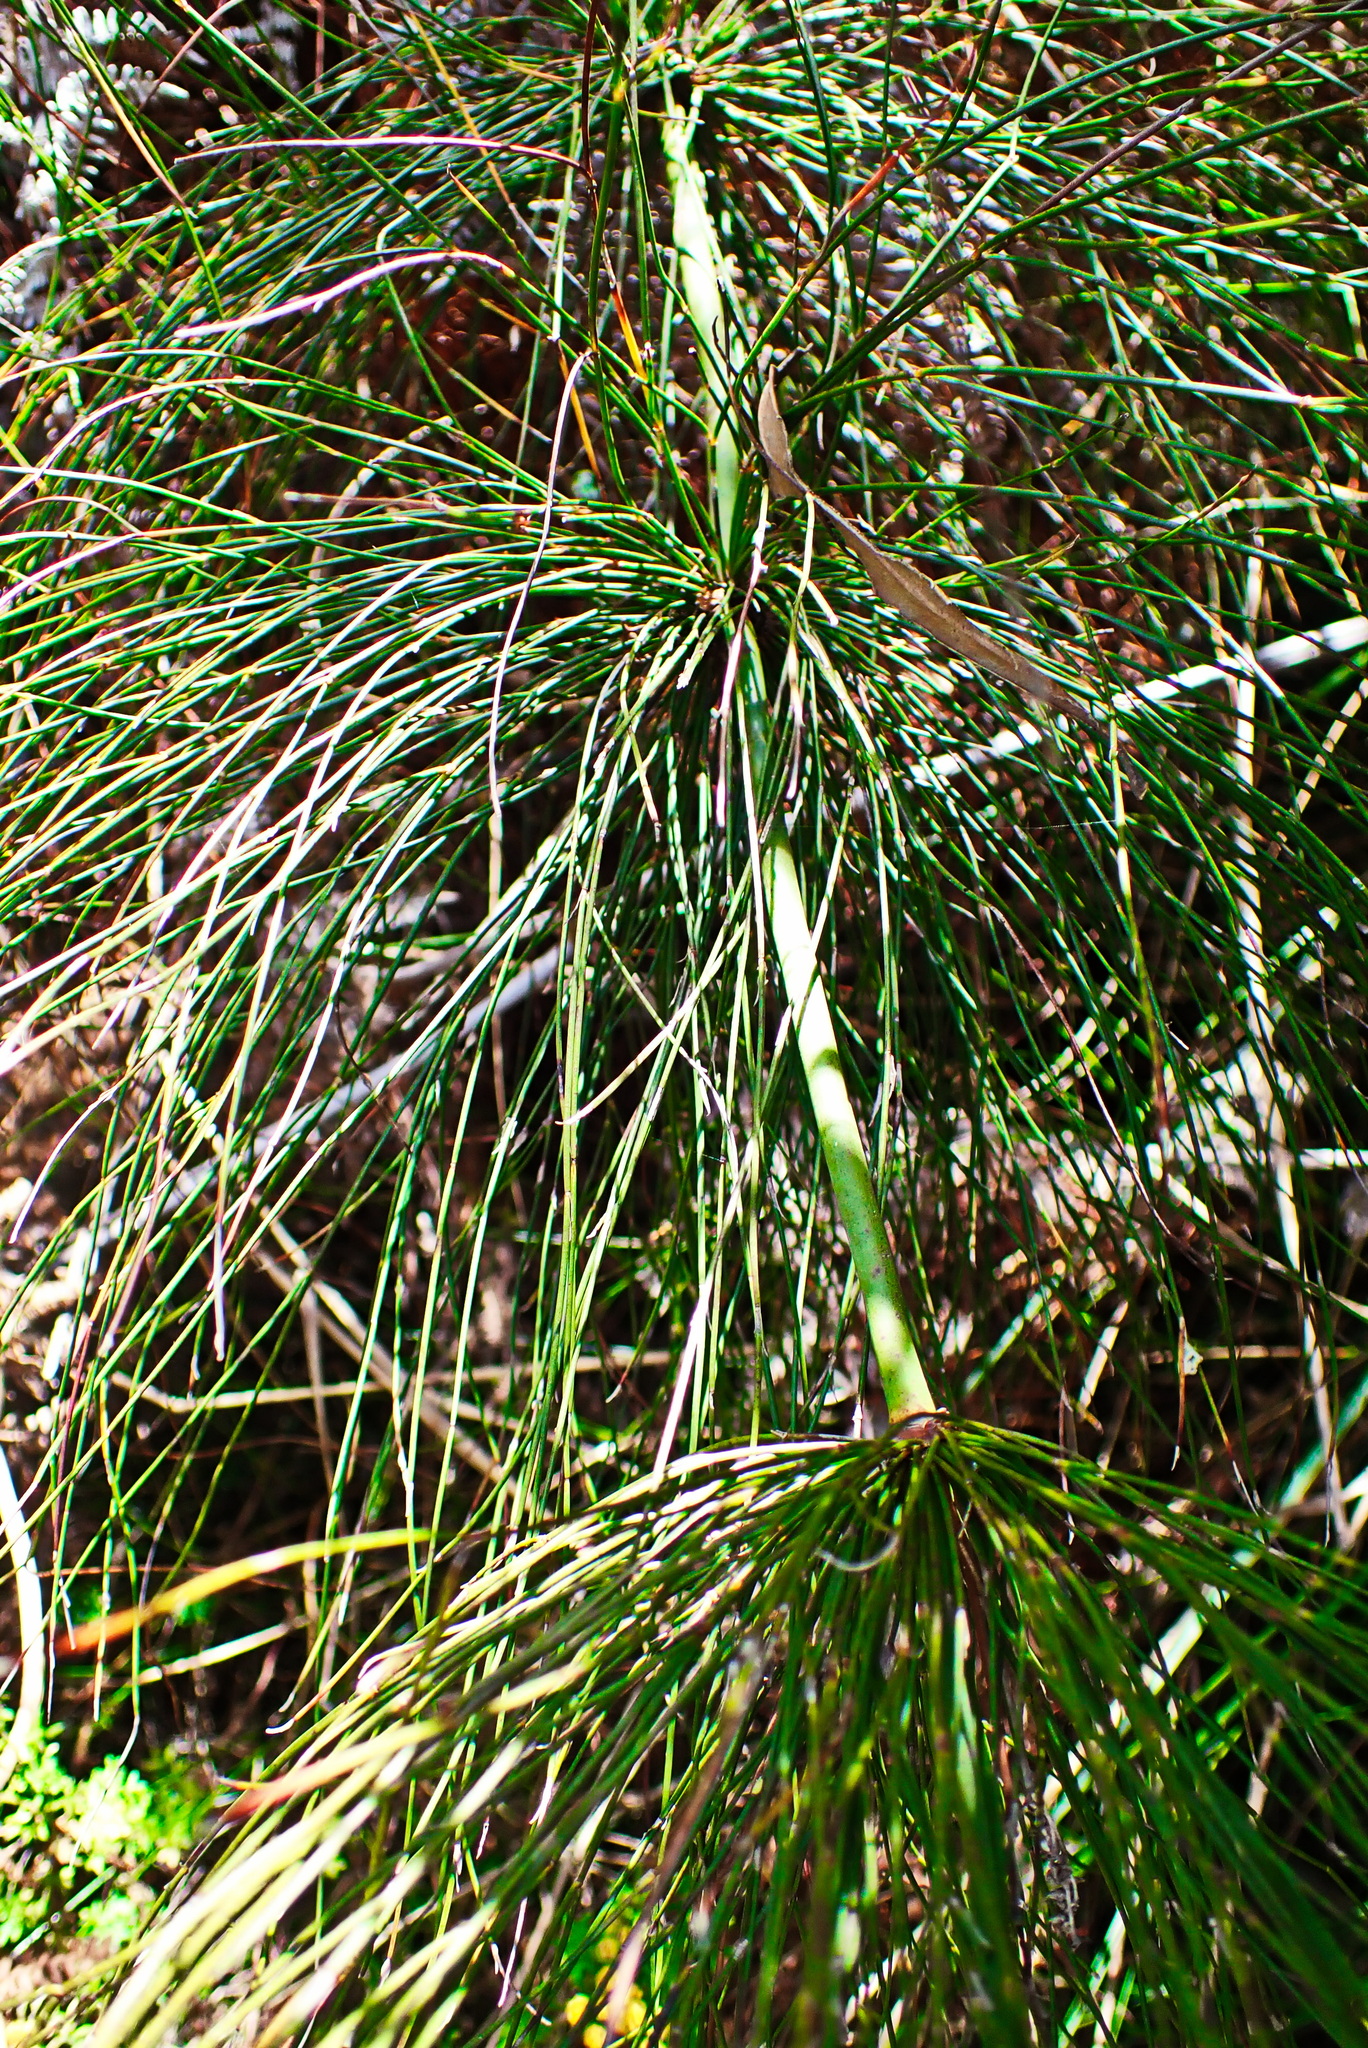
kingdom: Plantae
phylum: Tracheophyta
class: Liliopsida
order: Poales
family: Restionaceae
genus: Elegia
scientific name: Elegia capensis
